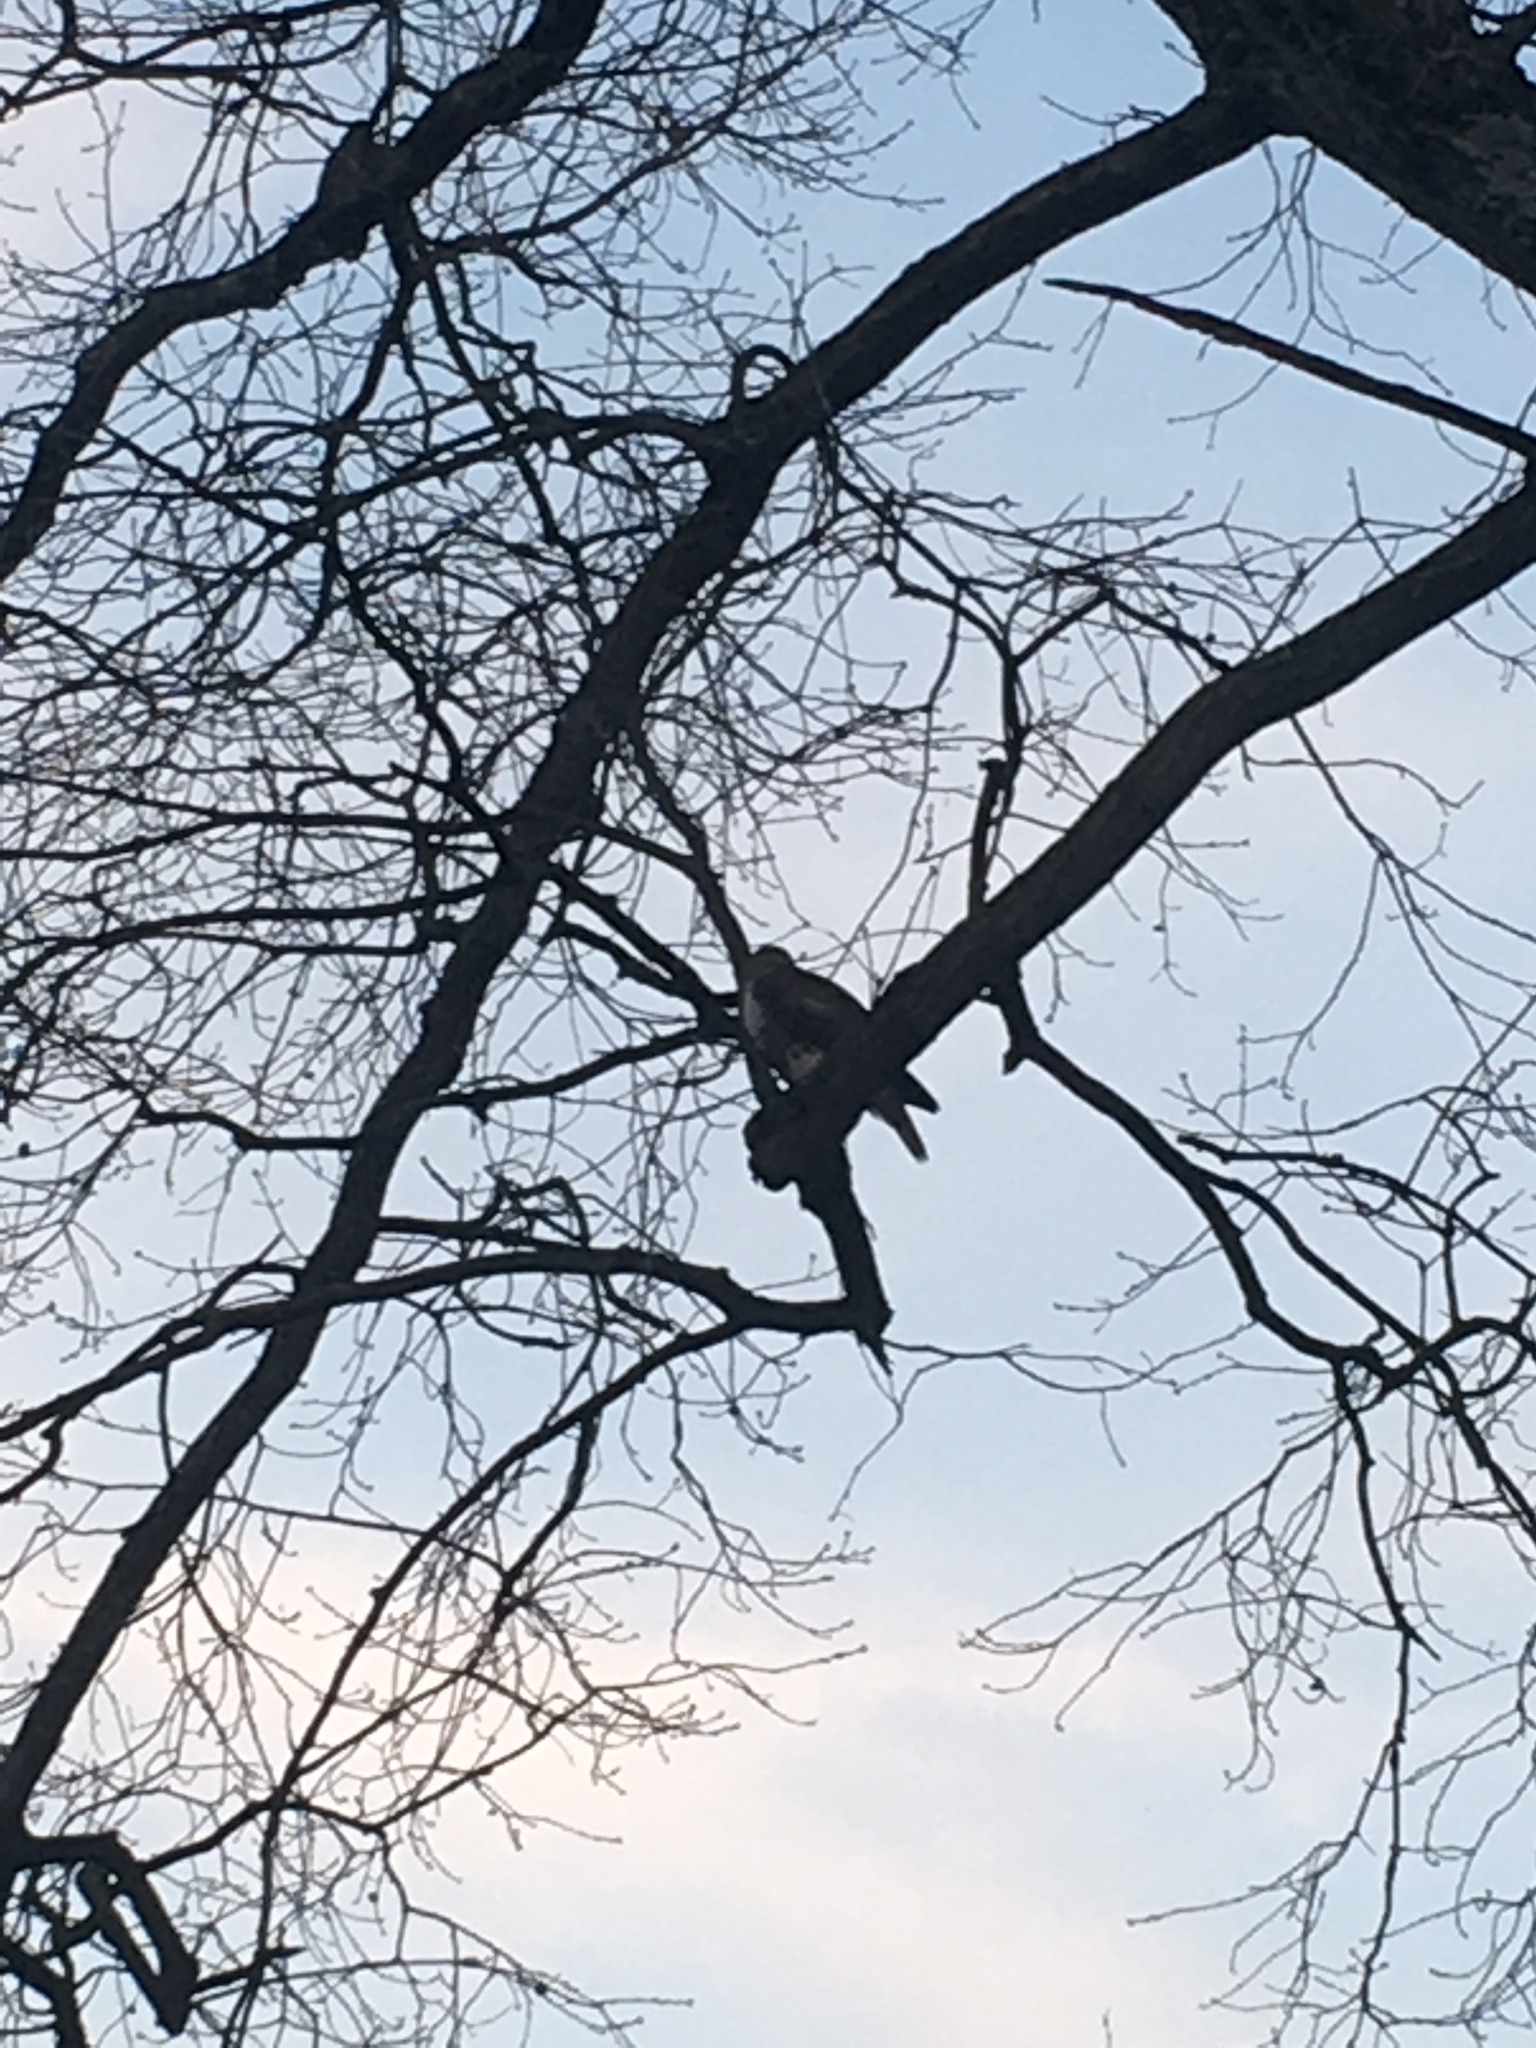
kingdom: Animalia
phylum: Chordata
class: Aves
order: Accipitriformes
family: Accipitridae
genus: Buteo
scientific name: Buteo jamaicensis
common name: Red-tailed hawk
